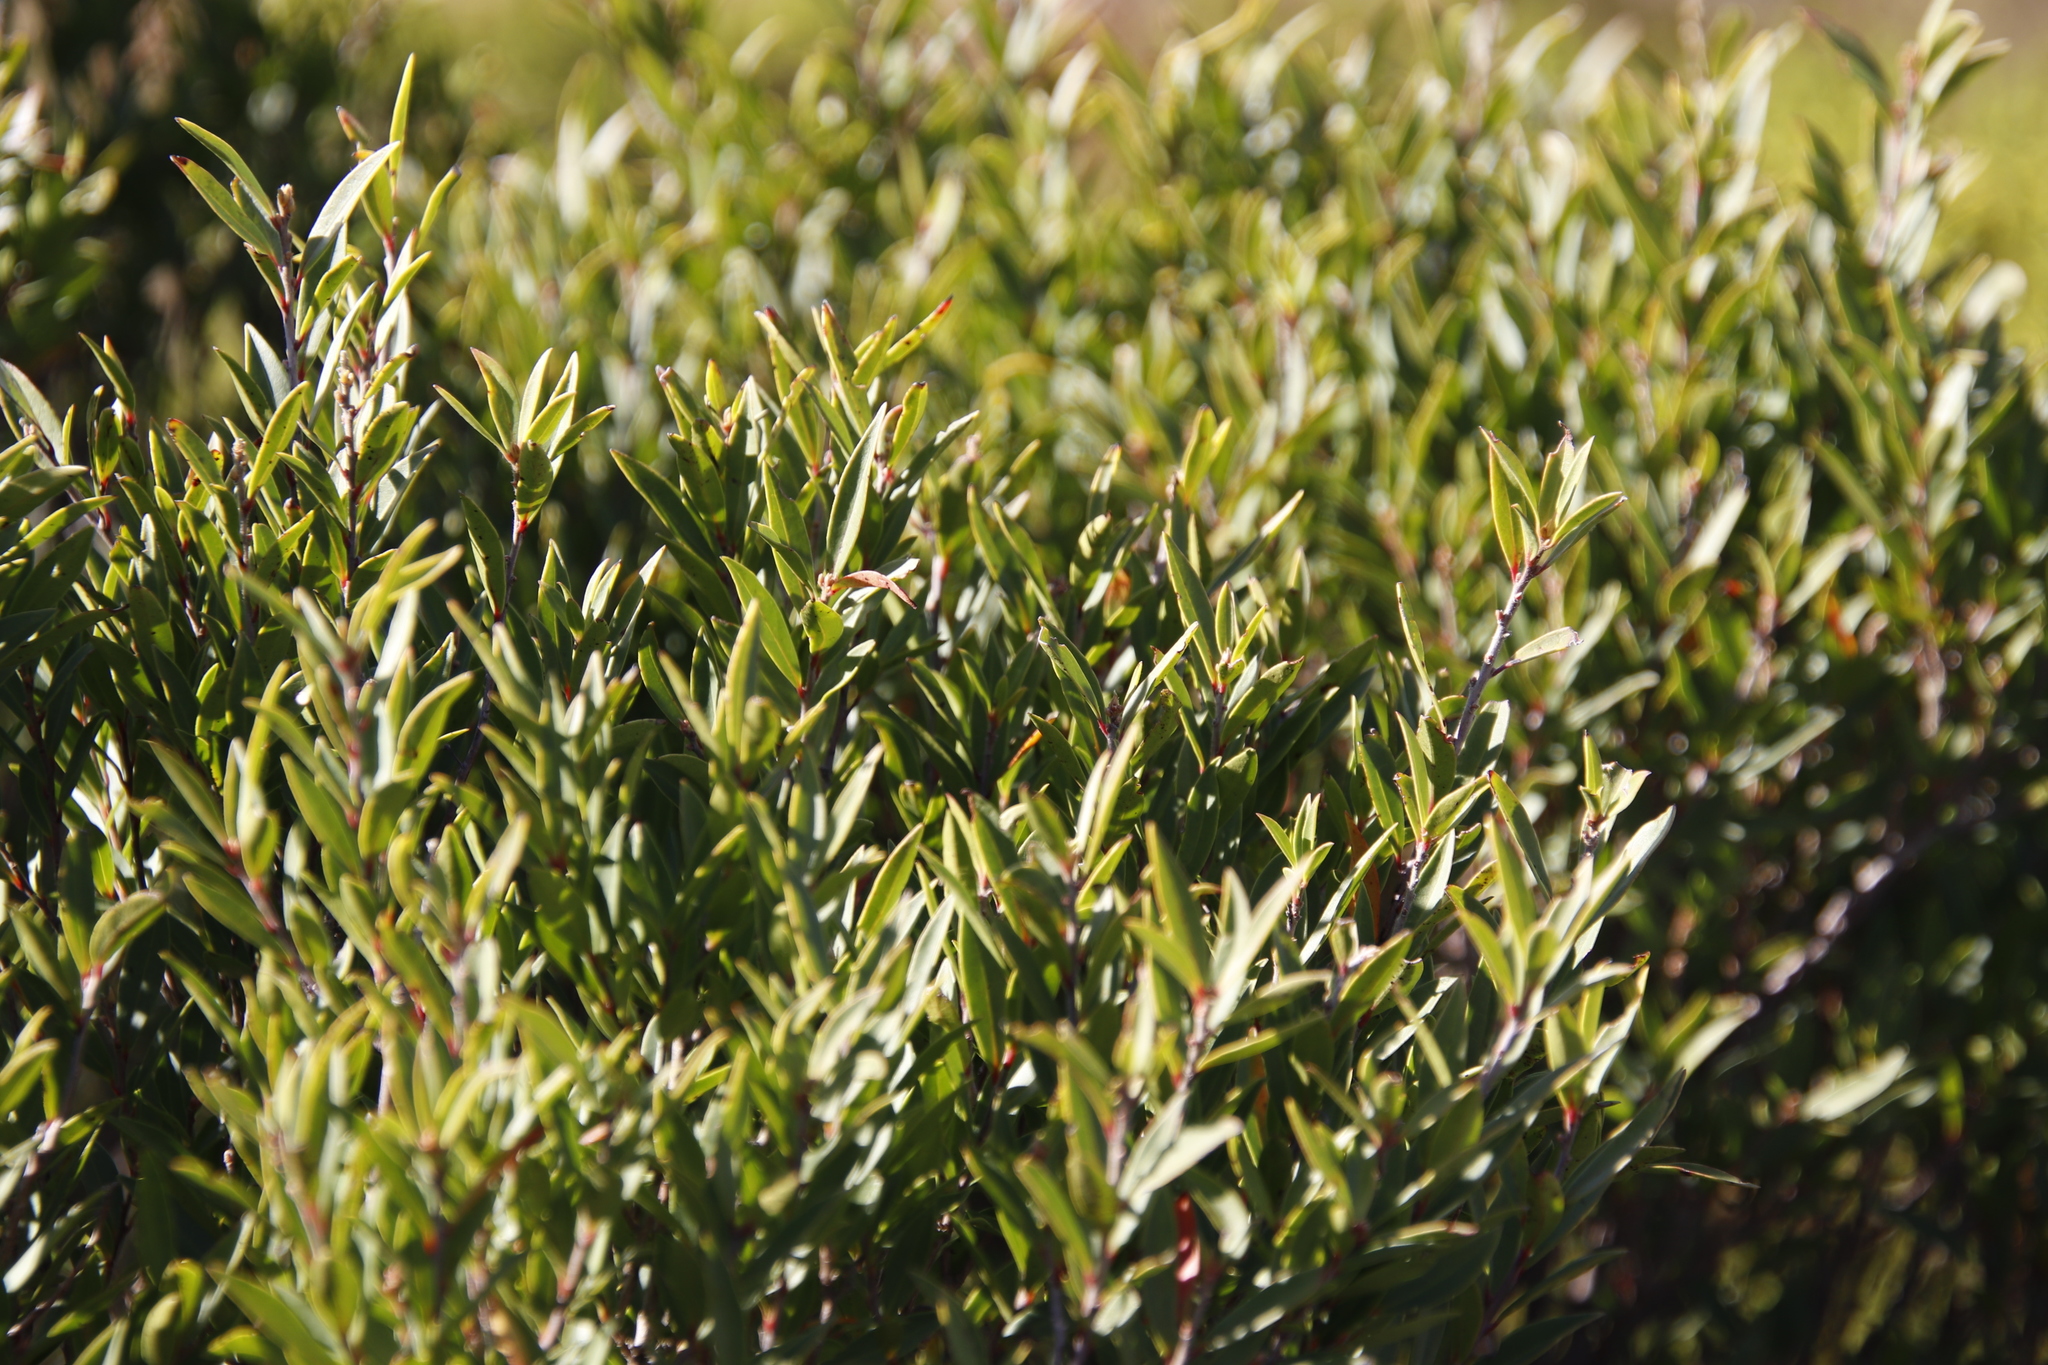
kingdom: Plantae
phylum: Tracheophyta
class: Magnoliopsida
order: Ericales
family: Ebenaceae
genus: Diospyros
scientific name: Diospyros glabra
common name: Fynbos star apple
